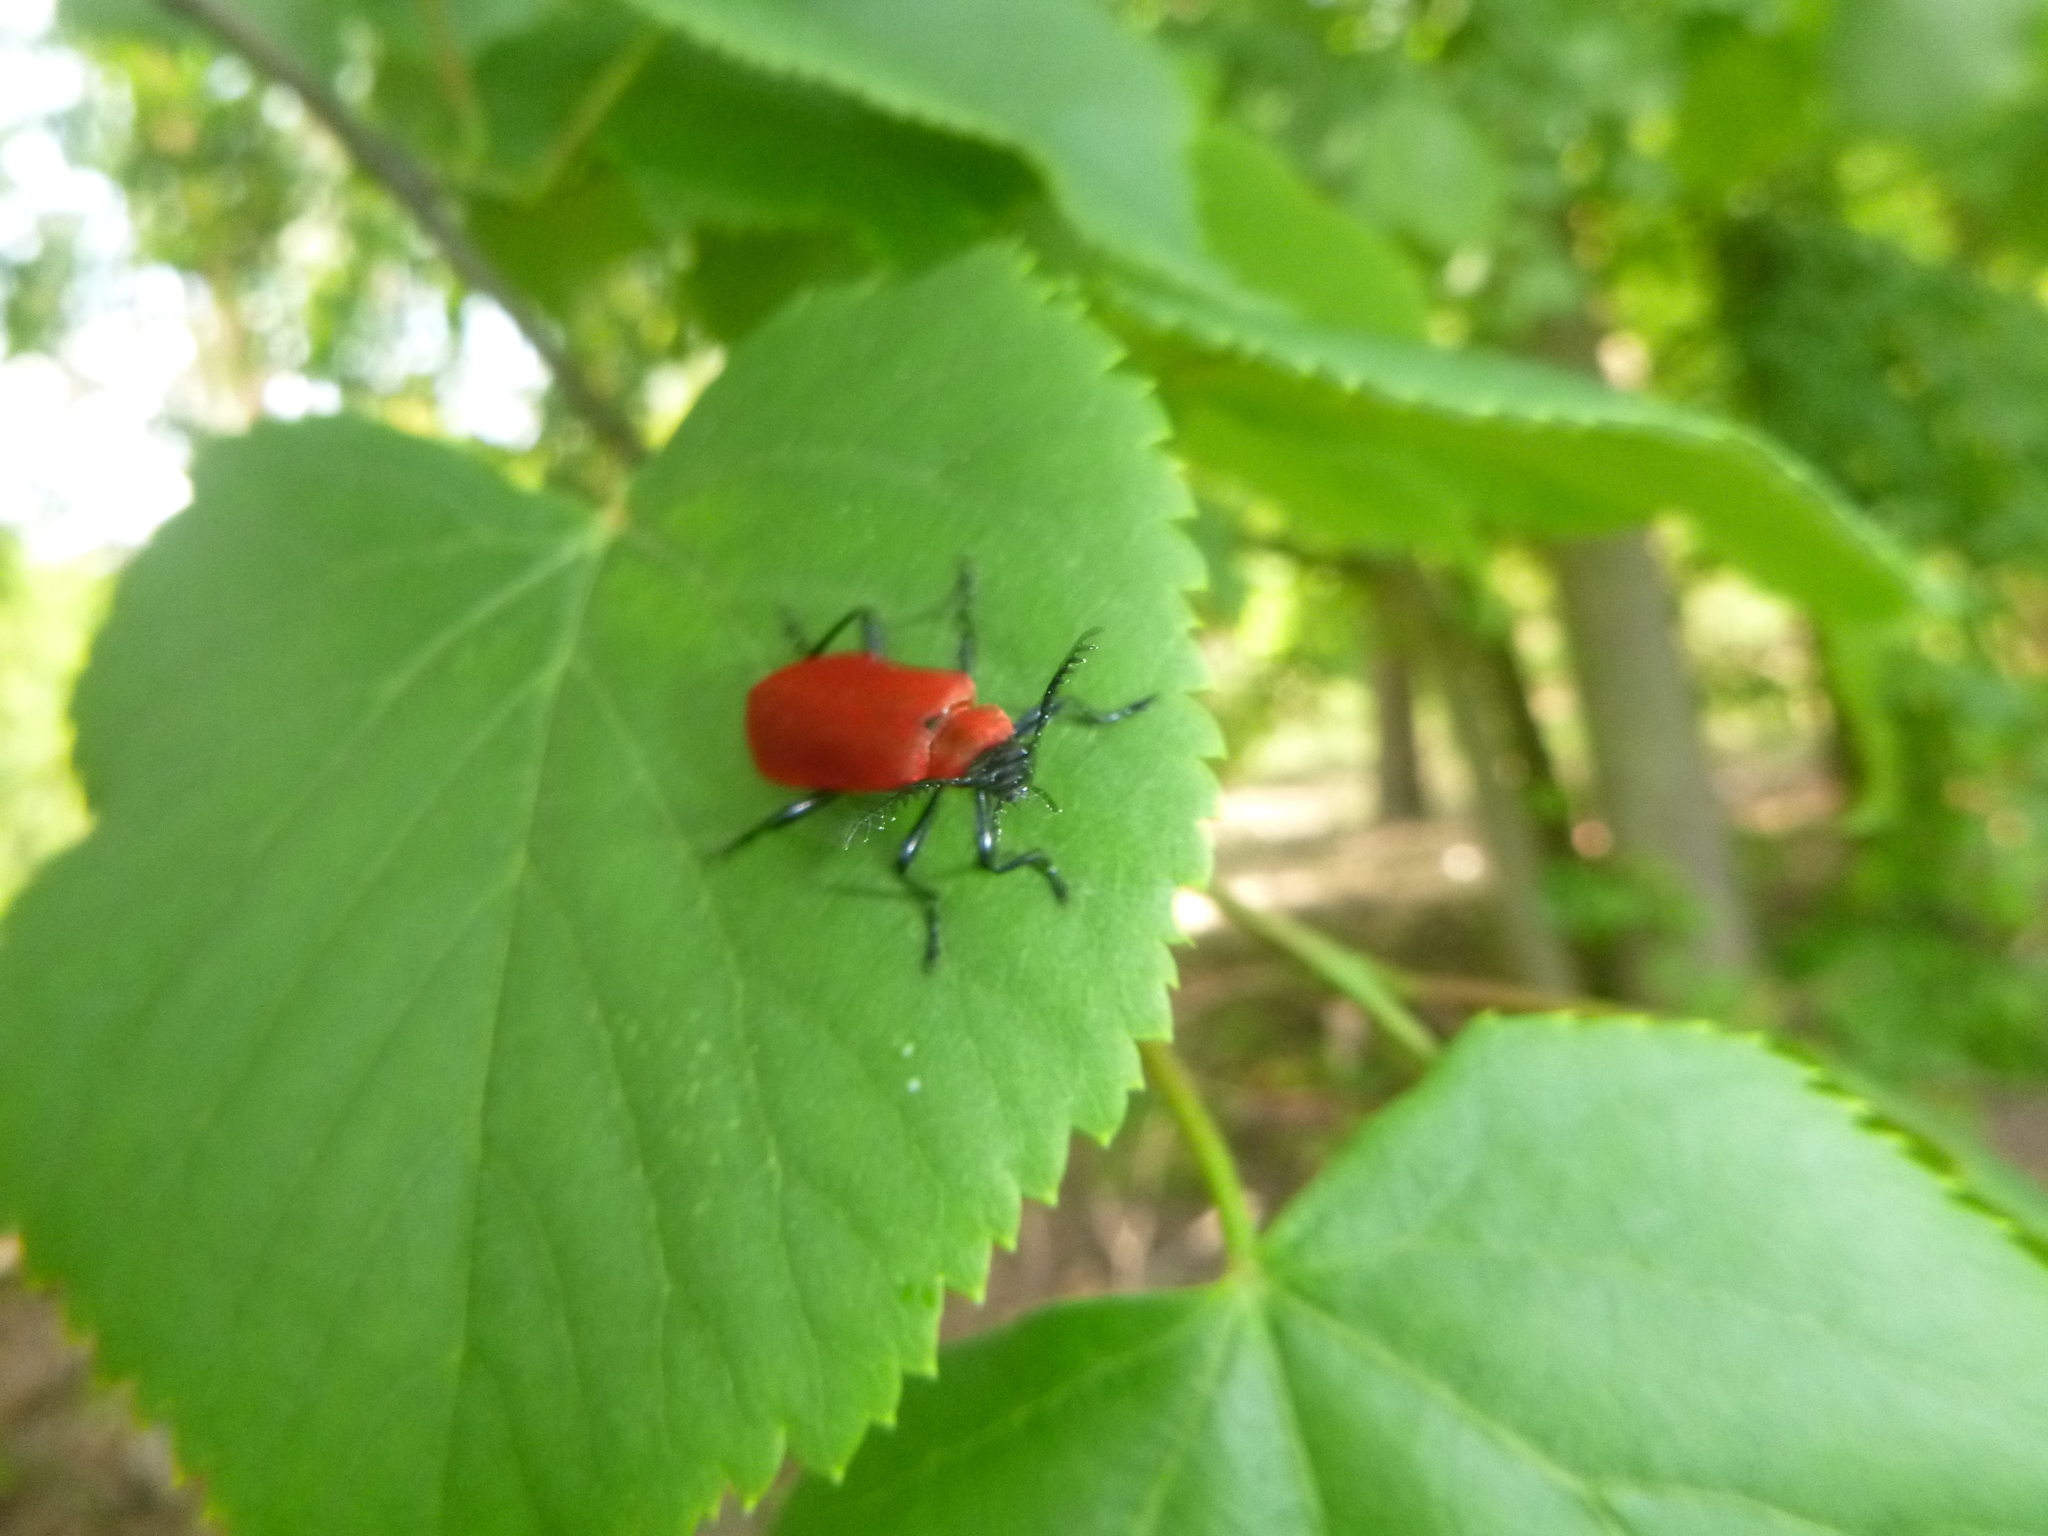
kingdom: Animalia
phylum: Arthropoda
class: Insecta
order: Coleoptera
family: Pyrochroidae
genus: Pyrochroa
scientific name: Pyrochroa coccinea
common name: Black-headed cardinal beetle
